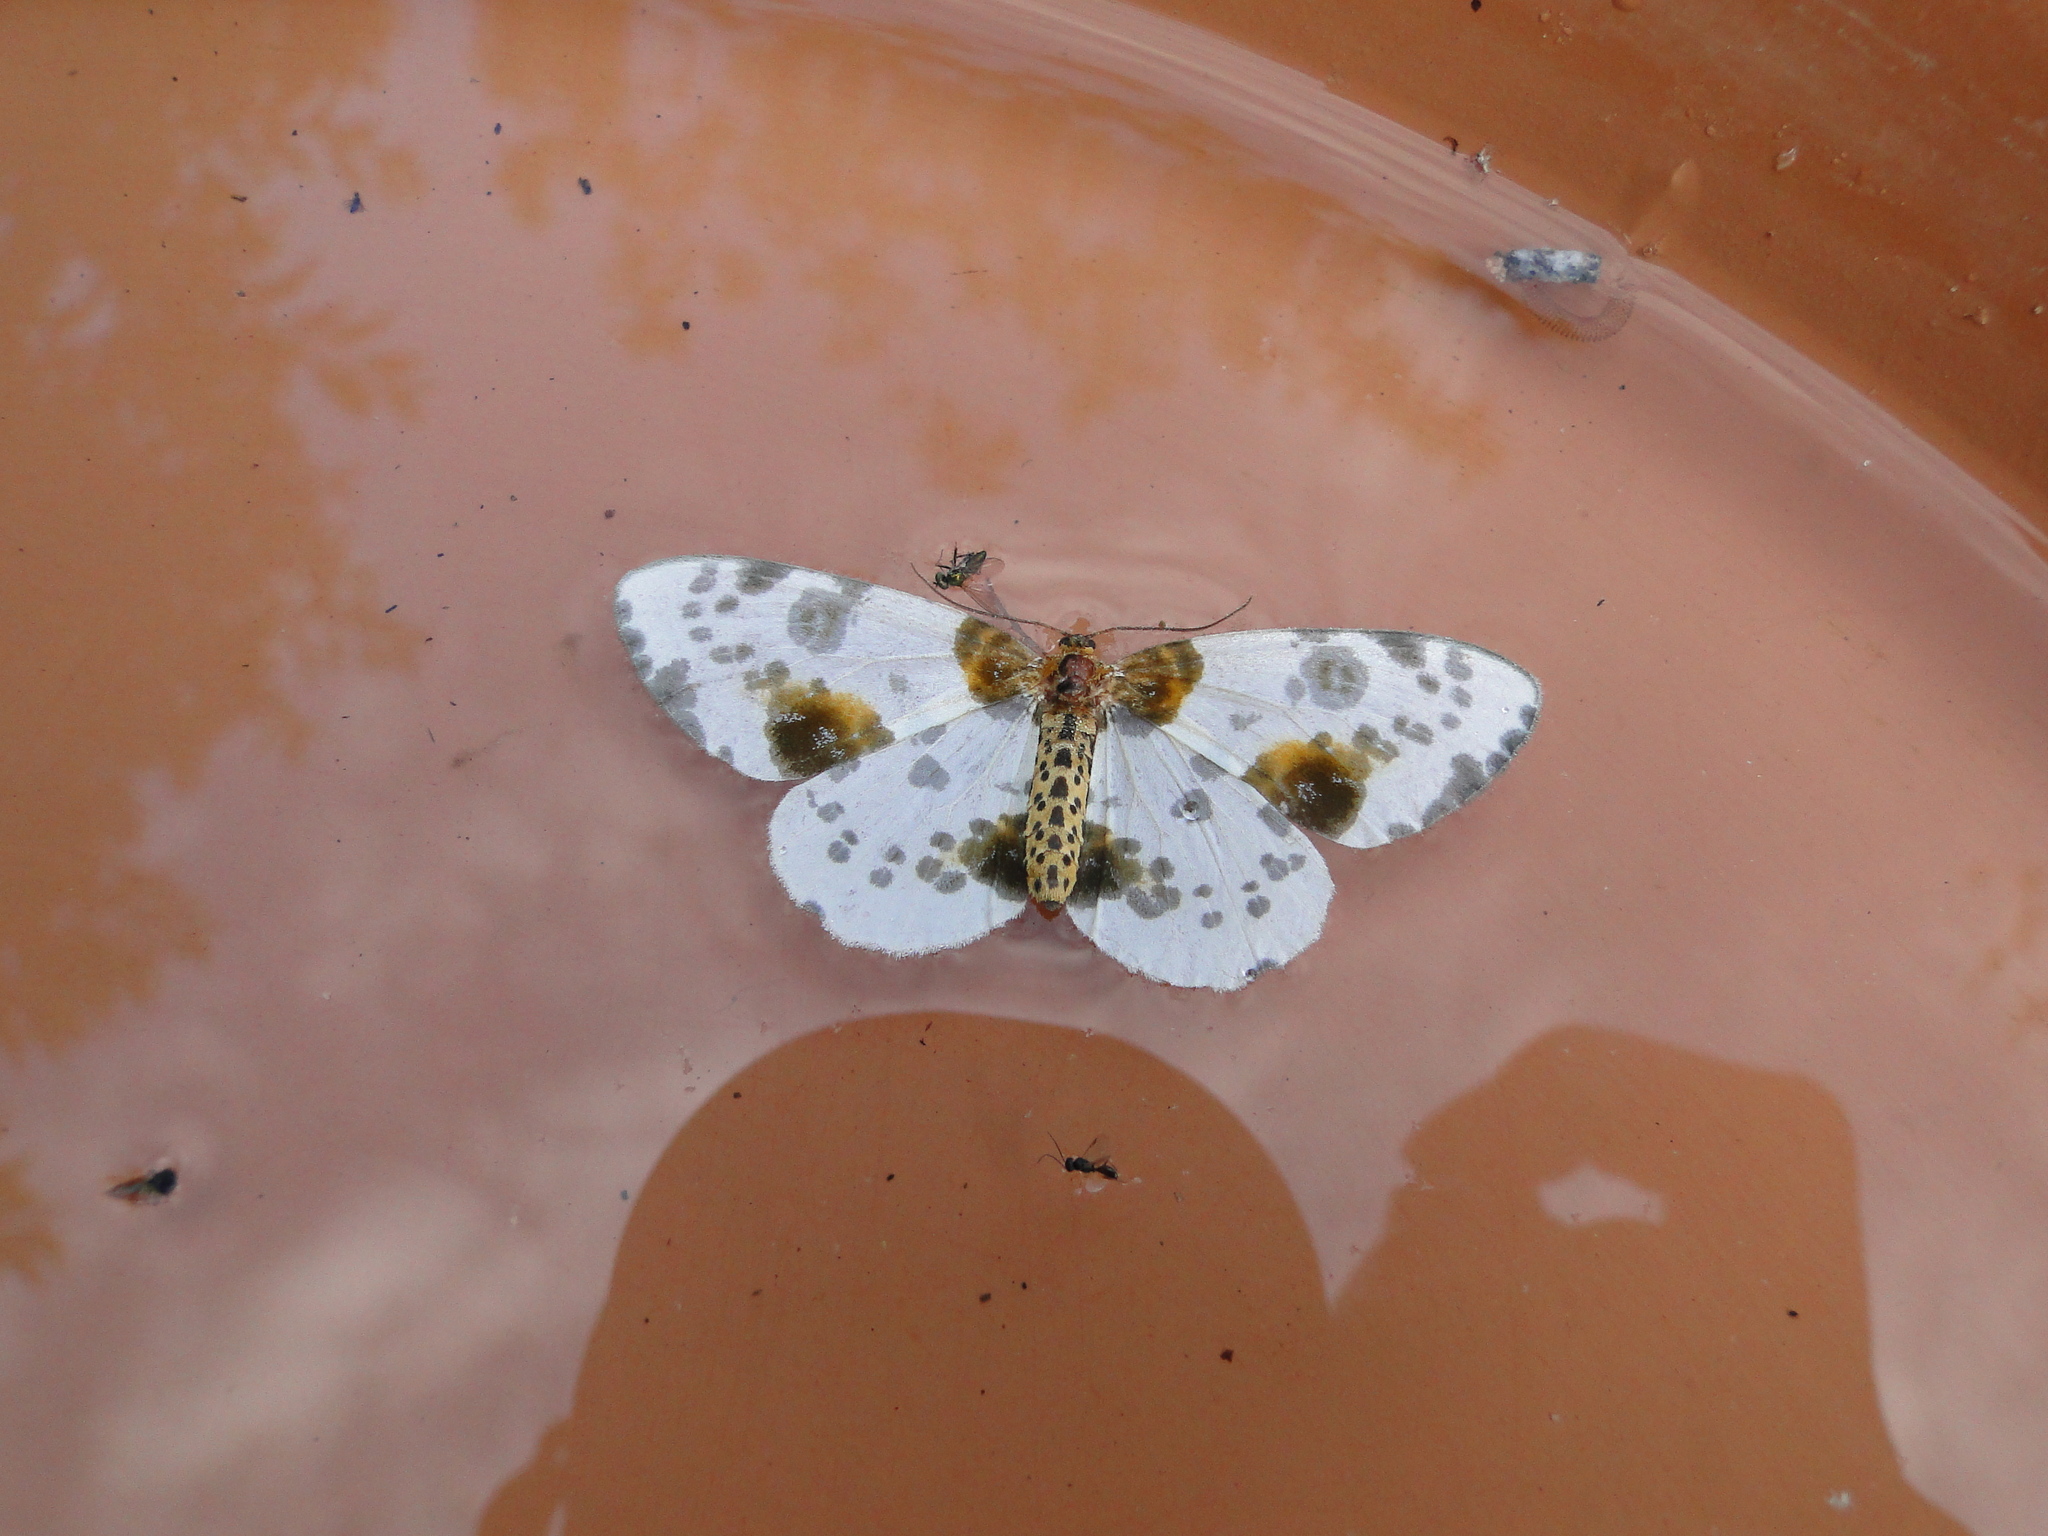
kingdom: Animalia
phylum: Arthropoda
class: Insecta
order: Lepidoptera
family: Geometridae
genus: Abraxas
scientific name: Abraxas sylvata
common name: Clouded magpie
